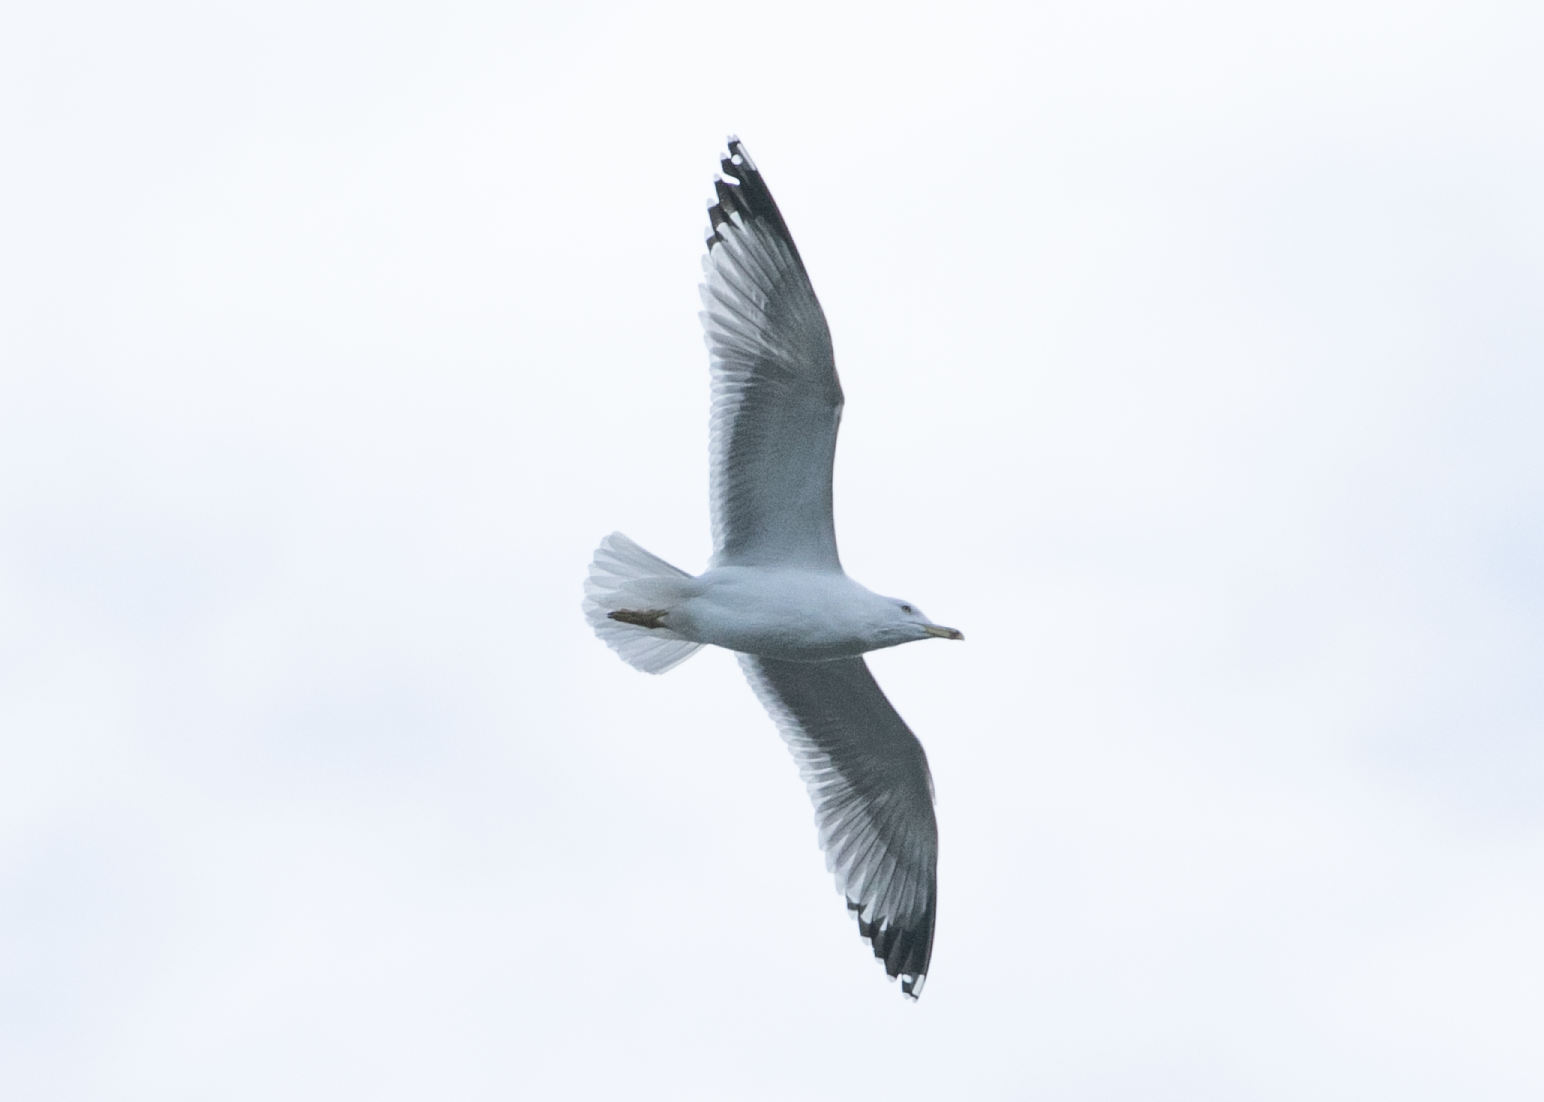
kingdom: Animalia
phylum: Chordata
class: Aves
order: Charadriiformes
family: Laridae
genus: Larus
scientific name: Larus michahellis
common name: Yellow-legged gull
